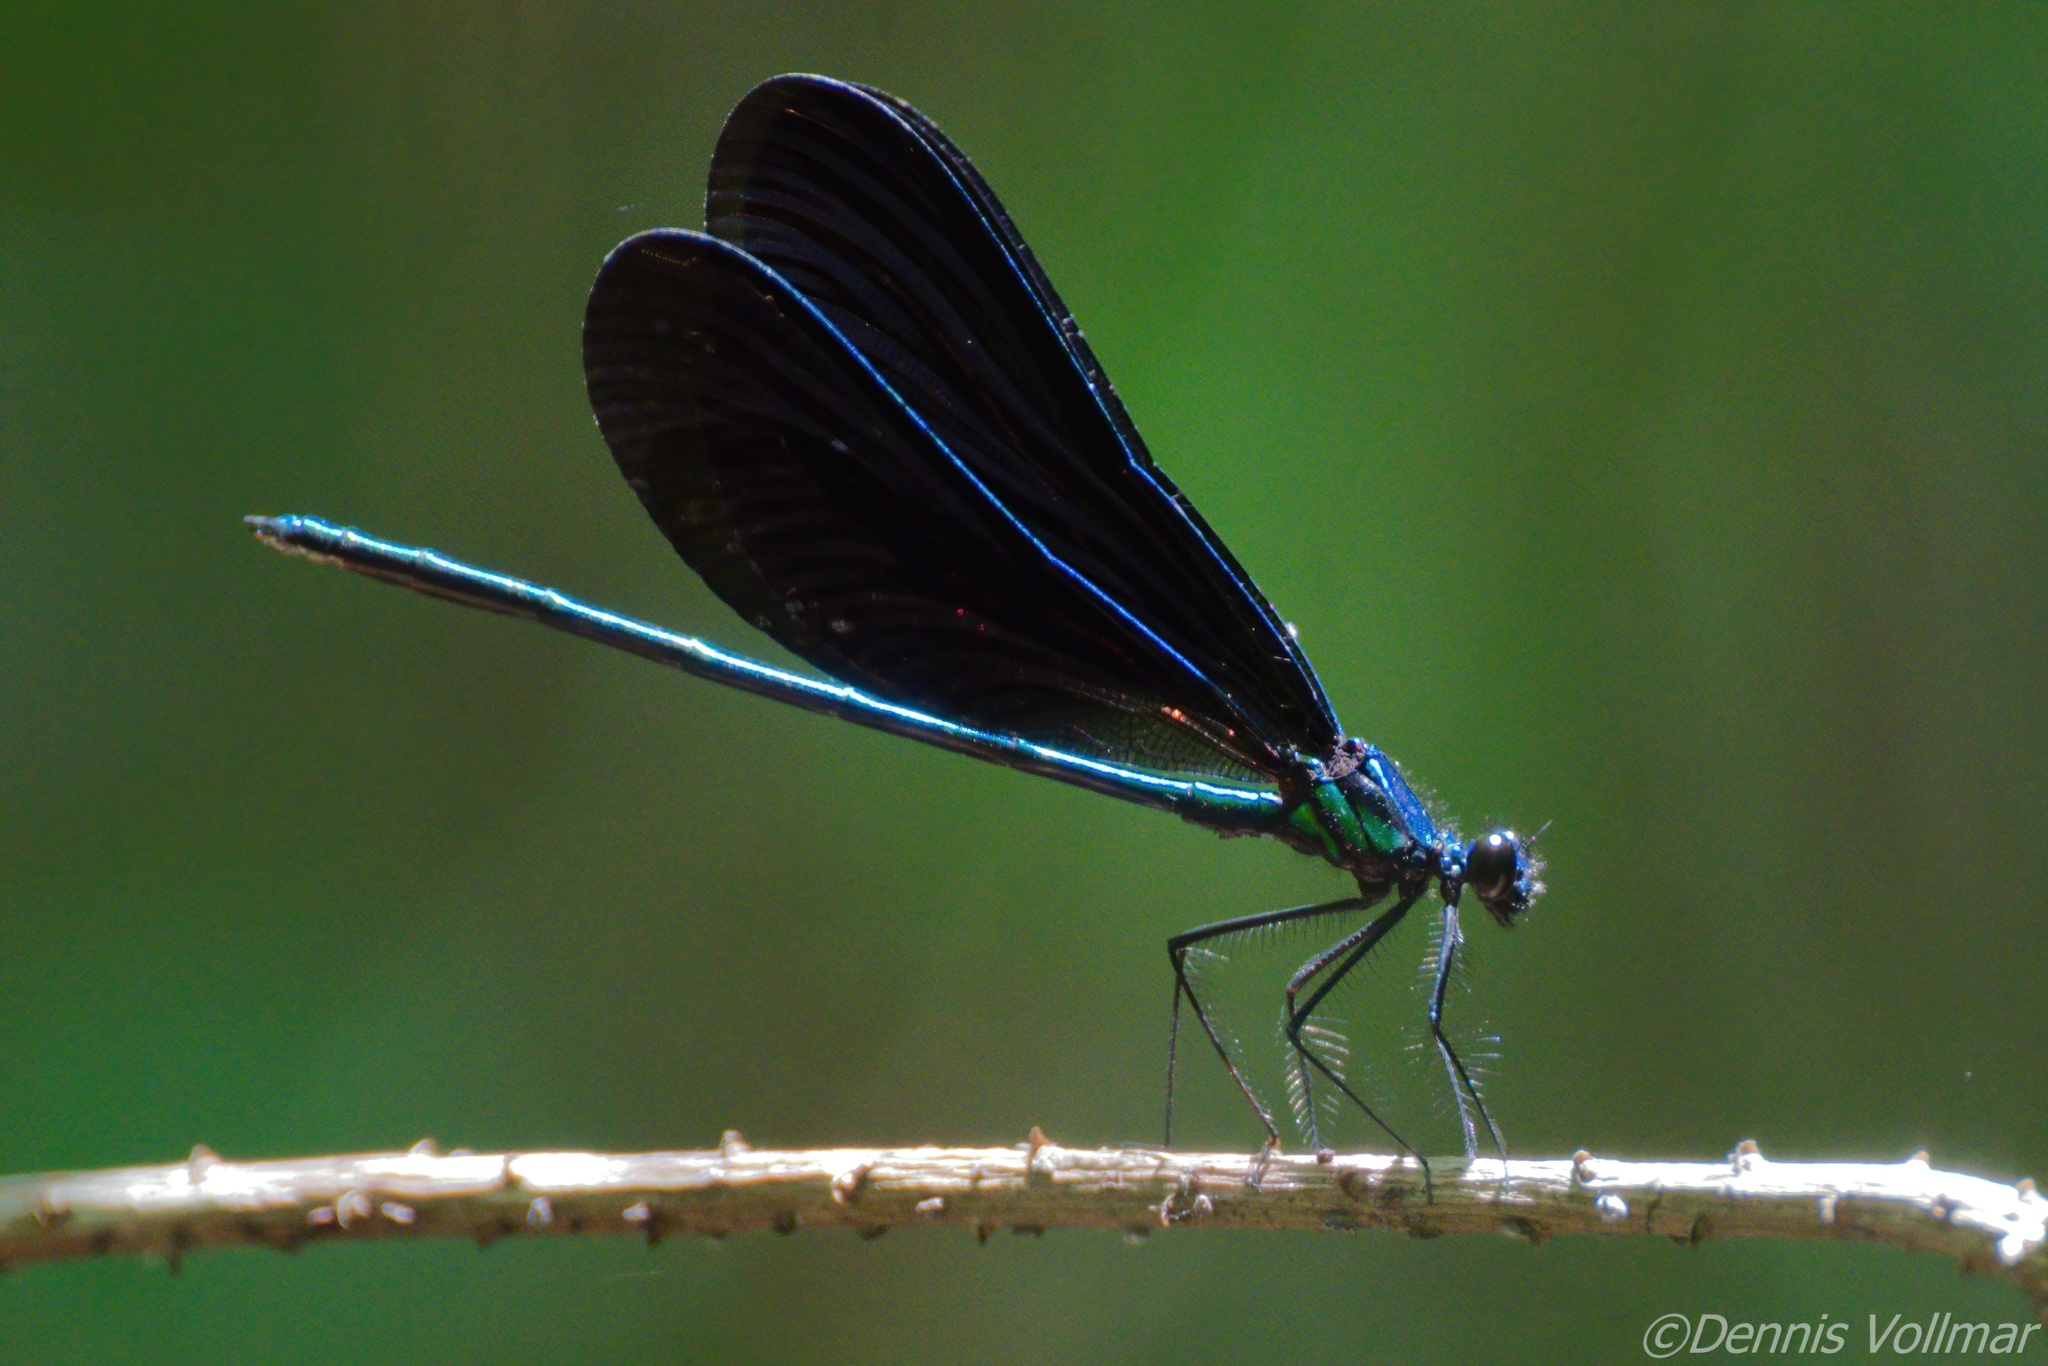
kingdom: Animalia
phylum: Arthropoda
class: Insecta
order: Odonata
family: Calopterygidae
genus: Calopteryx
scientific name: Calopteryx maculata
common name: Ebony jewelwing
